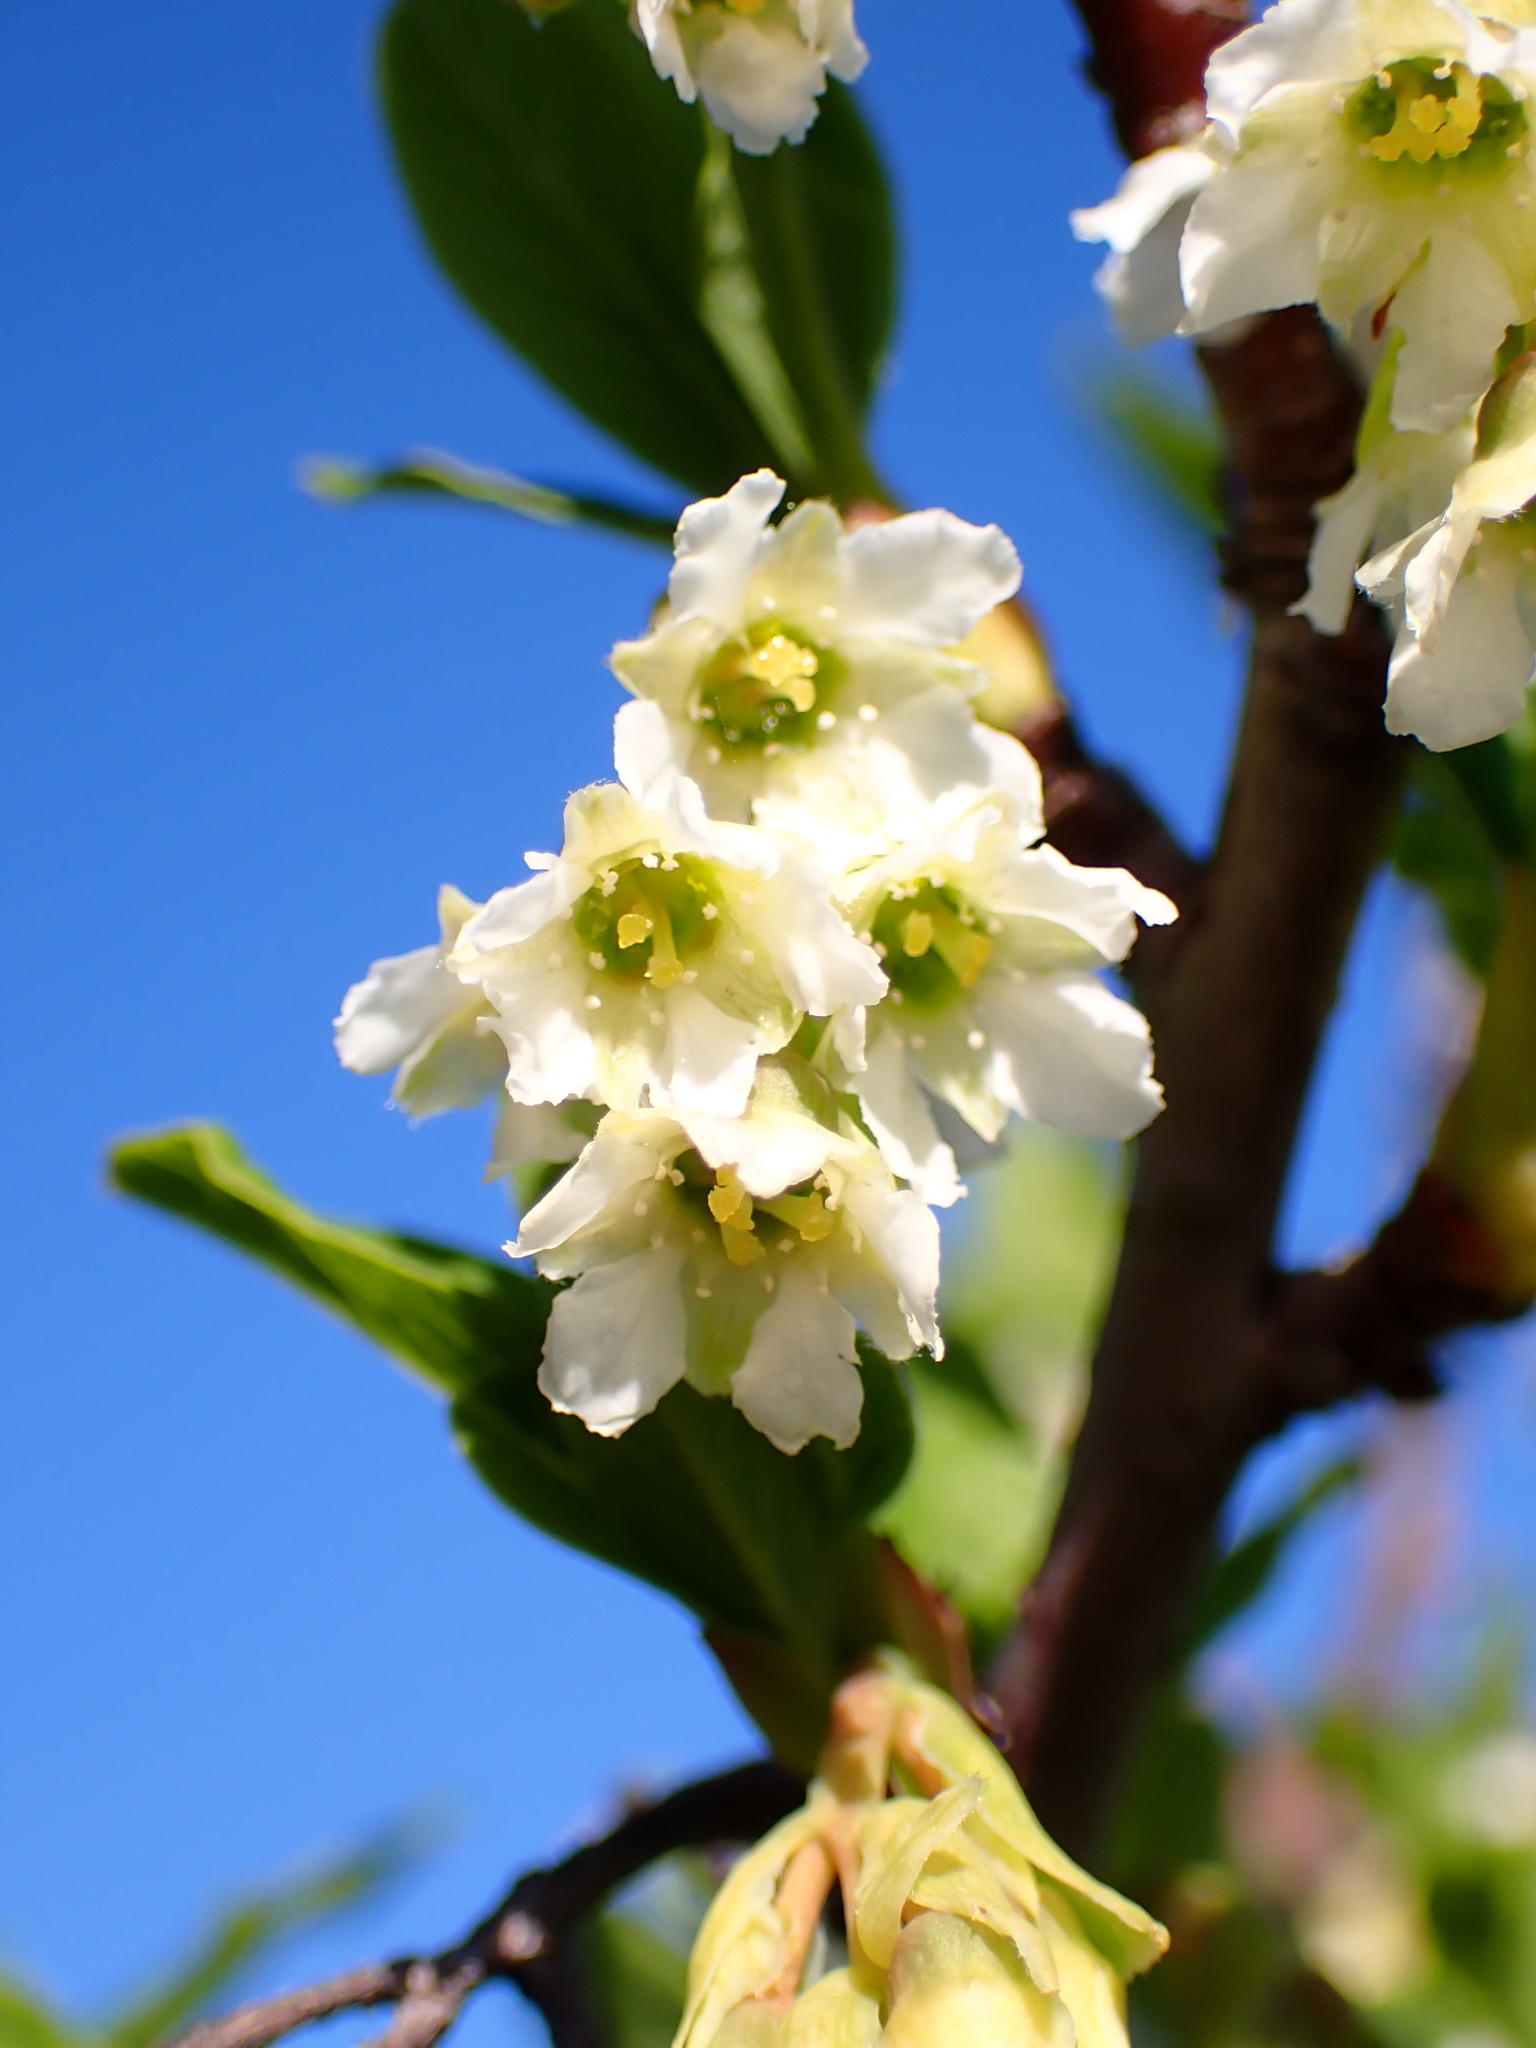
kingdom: Plantae
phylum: Tracheophyta
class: Magnoliopsida
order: Rosales
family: Rosaceae
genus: Oemleria
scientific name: Oemleria cerasiformis
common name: Osoberry
